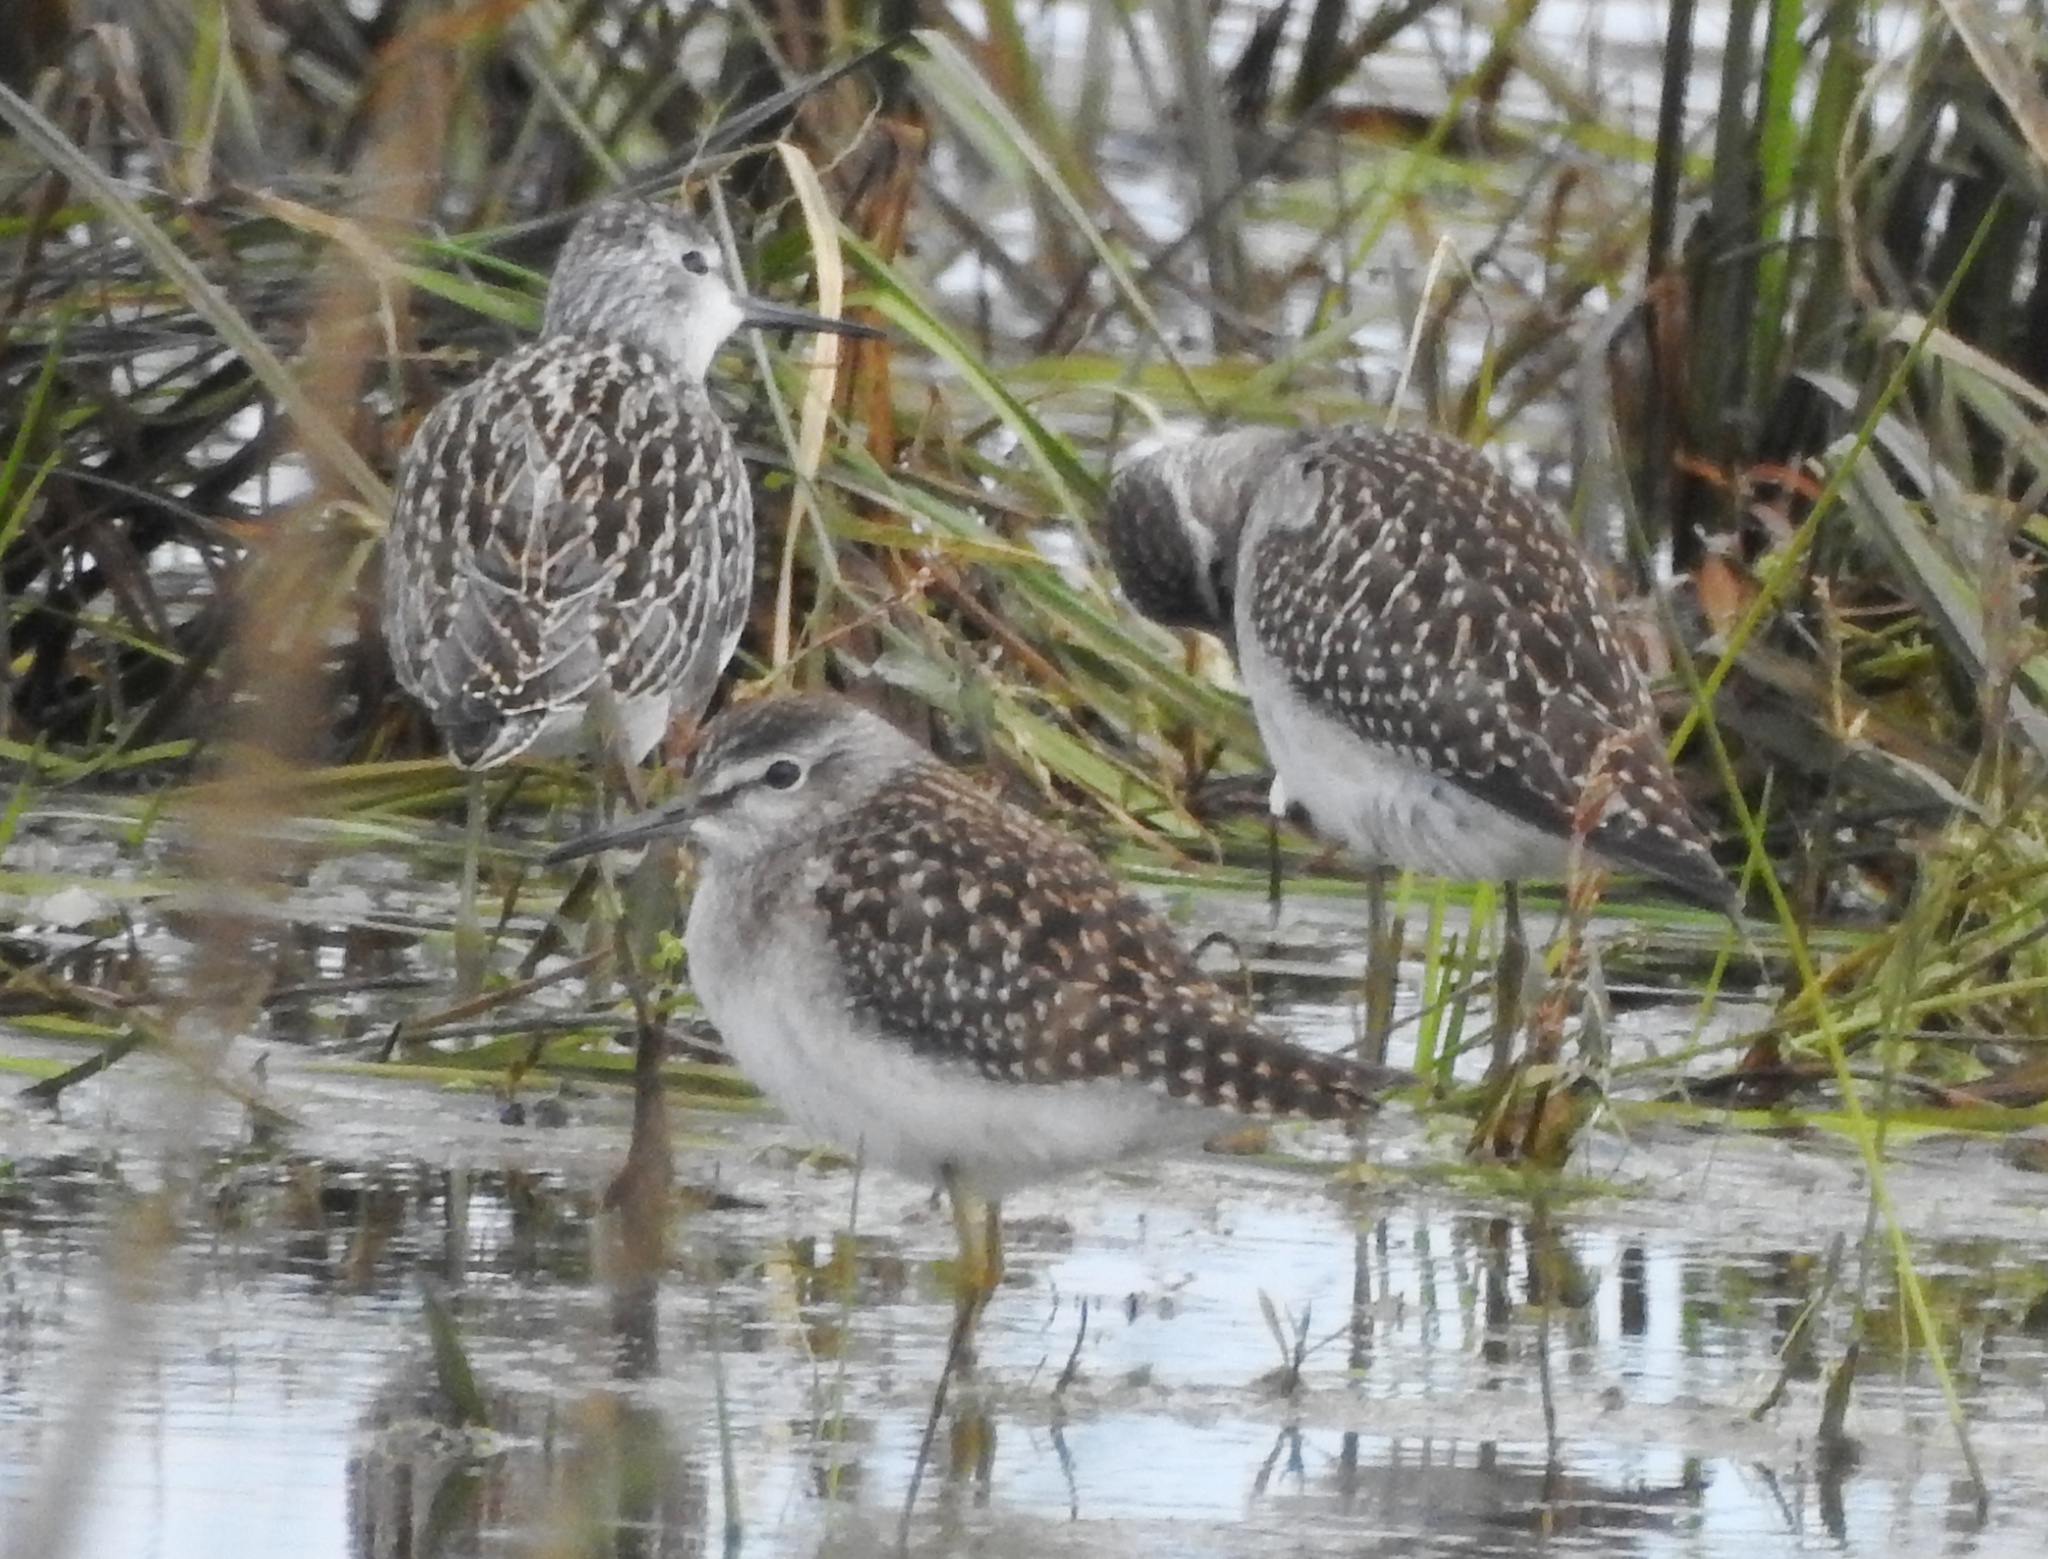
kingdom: Animalia
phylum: Chordata
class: Aves
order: Charadriiformes
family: Scolopacidae
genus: Tringa
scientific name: Tringa glareola
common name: Wood sandpiper
